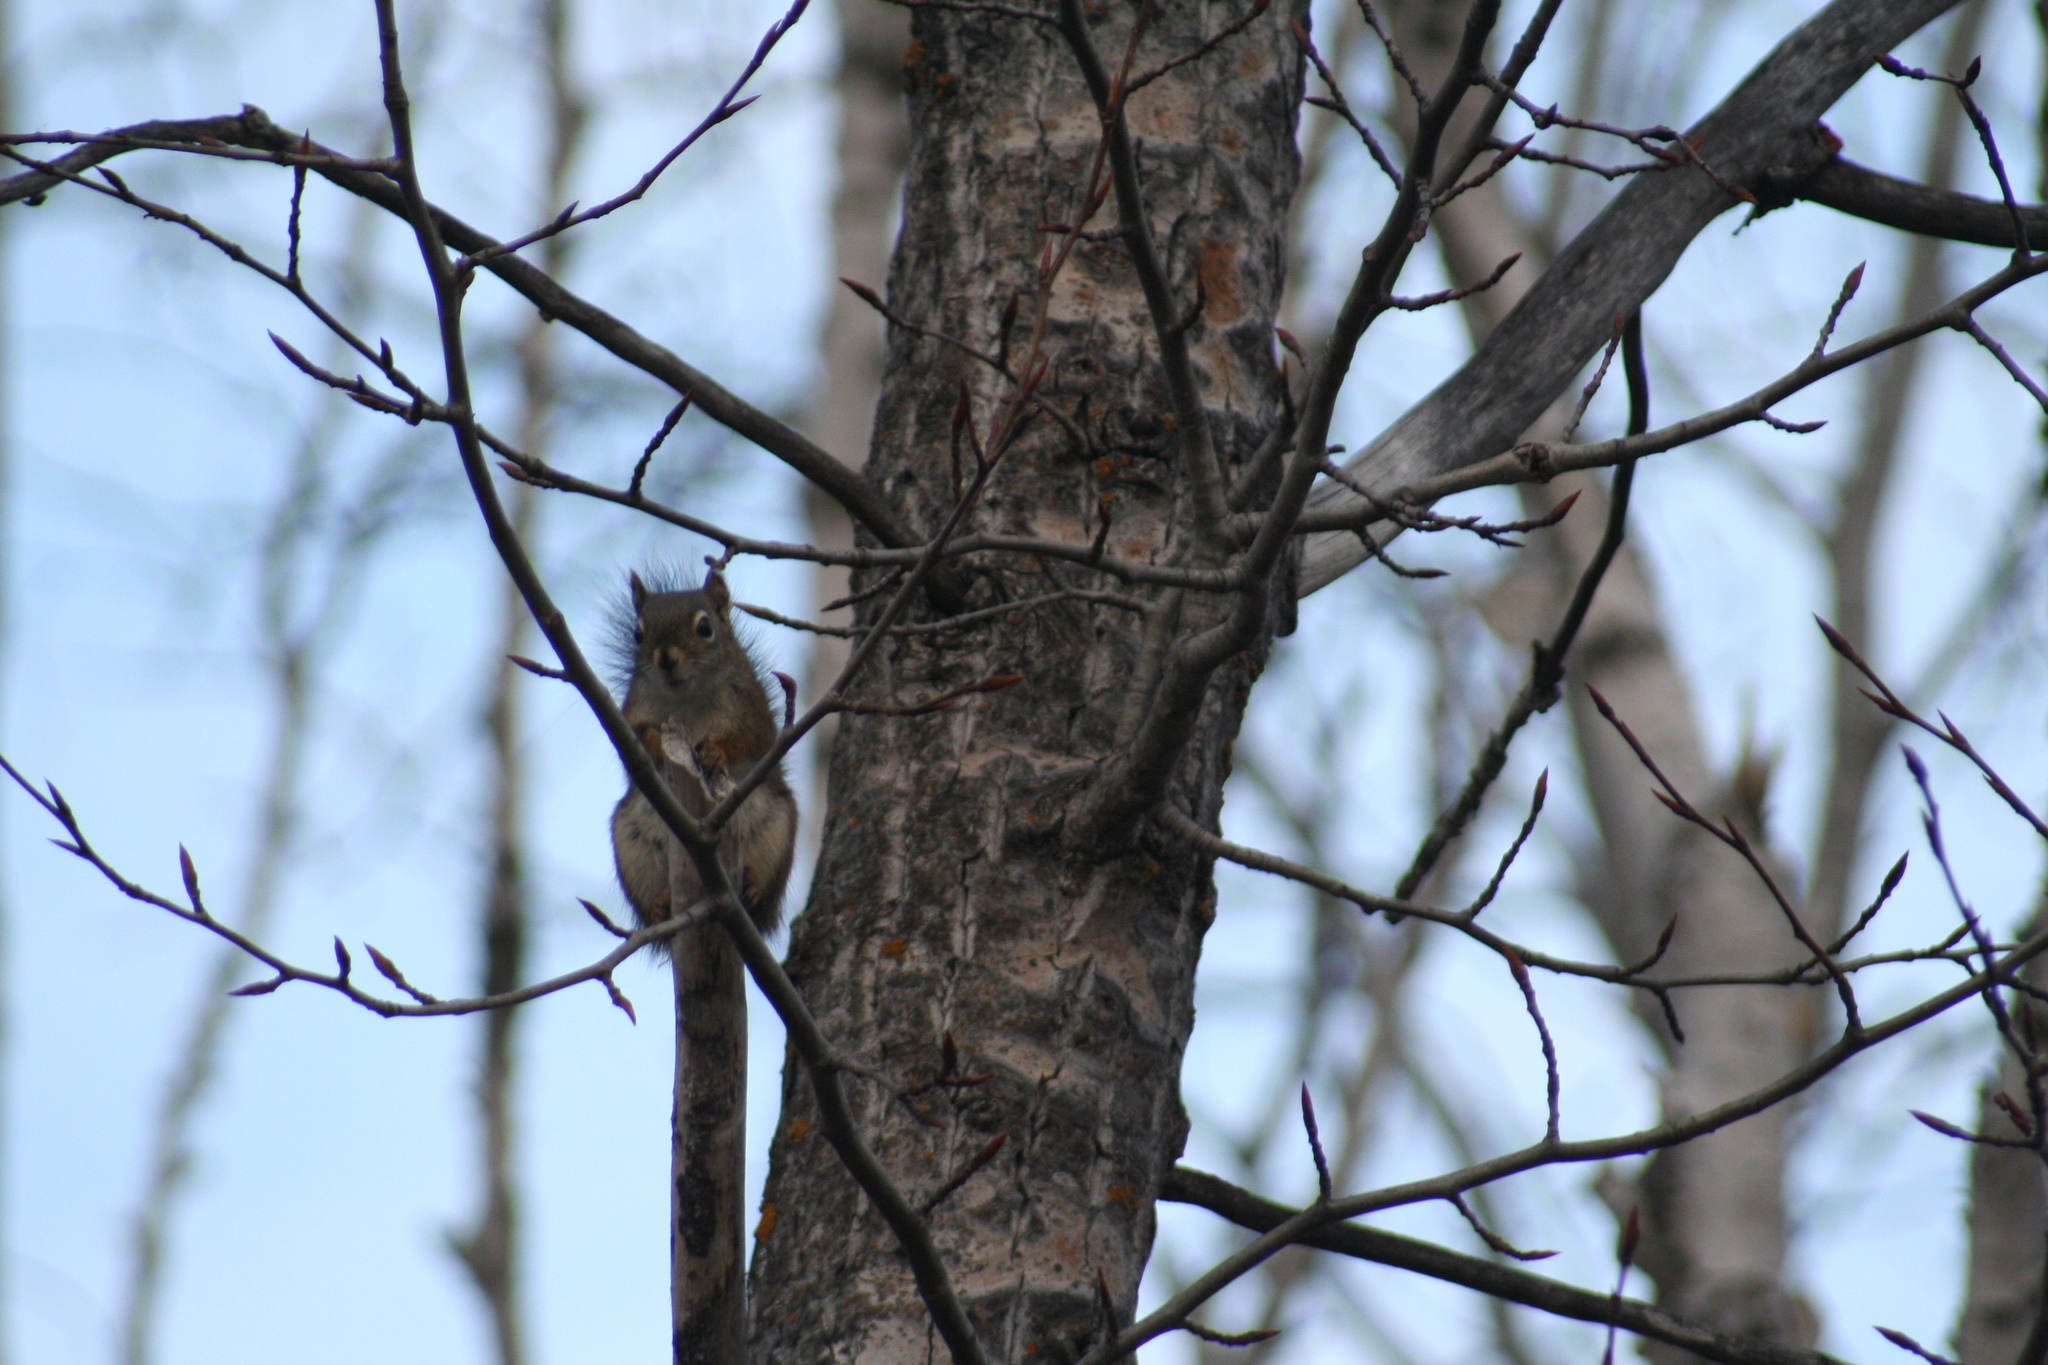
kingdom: Animalia
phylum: Chordata
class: Mammalia
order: Rodentia
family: Sciuridae
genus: Tamiasciurus
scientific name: Tamiasciurus hudsonicus
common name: Red squirrel
